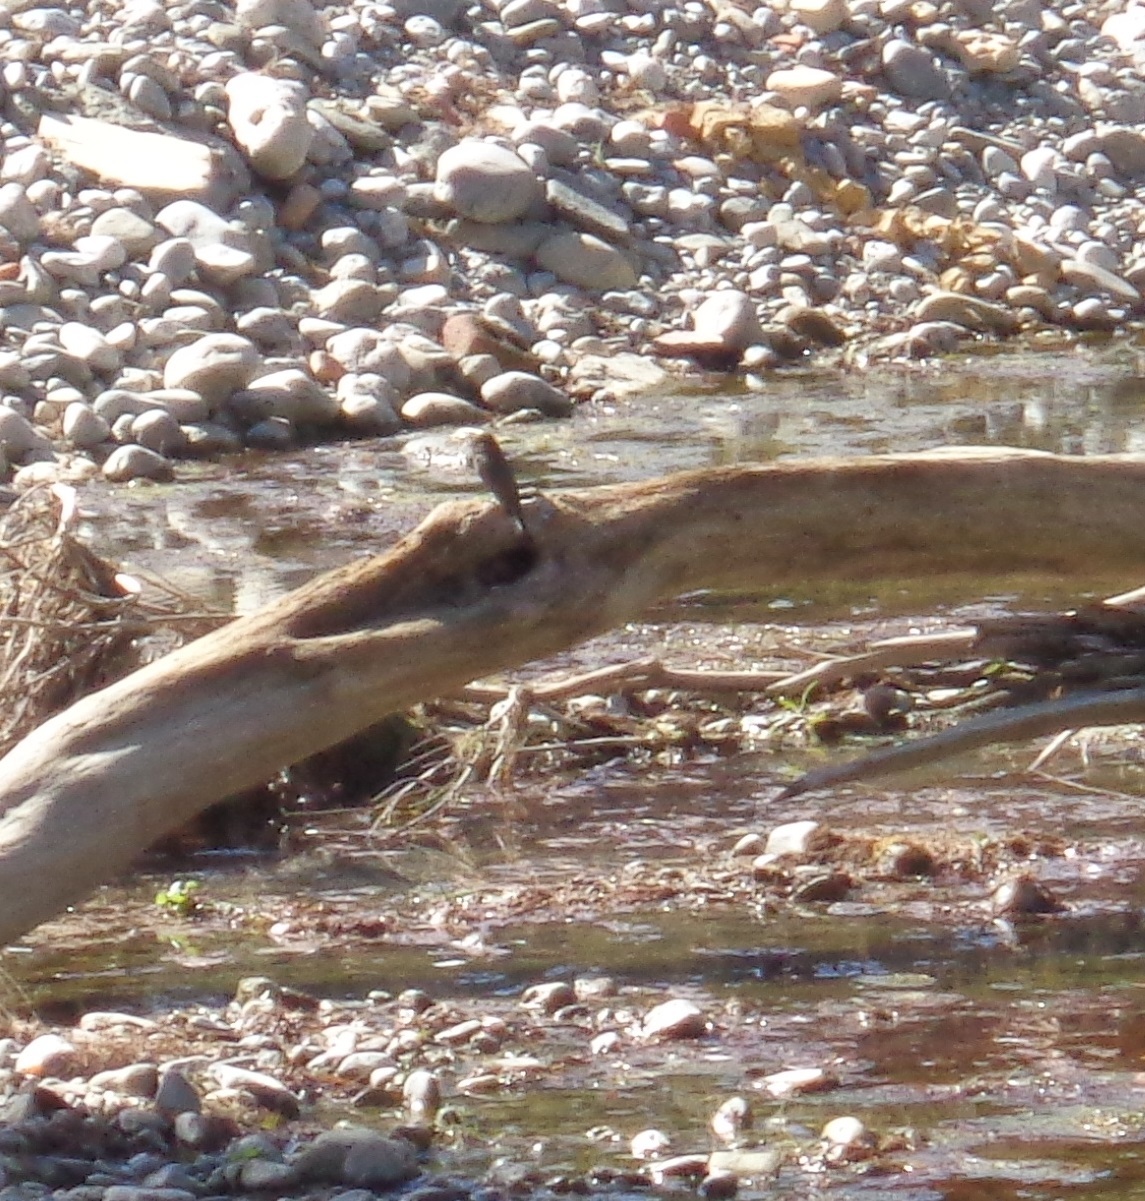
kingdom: Animalia
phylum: Chordata
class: Aves
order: Passeriformes
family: Tyrannidae
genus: Sayornis
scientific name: Sayornis nigricans
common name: Black phoebe
